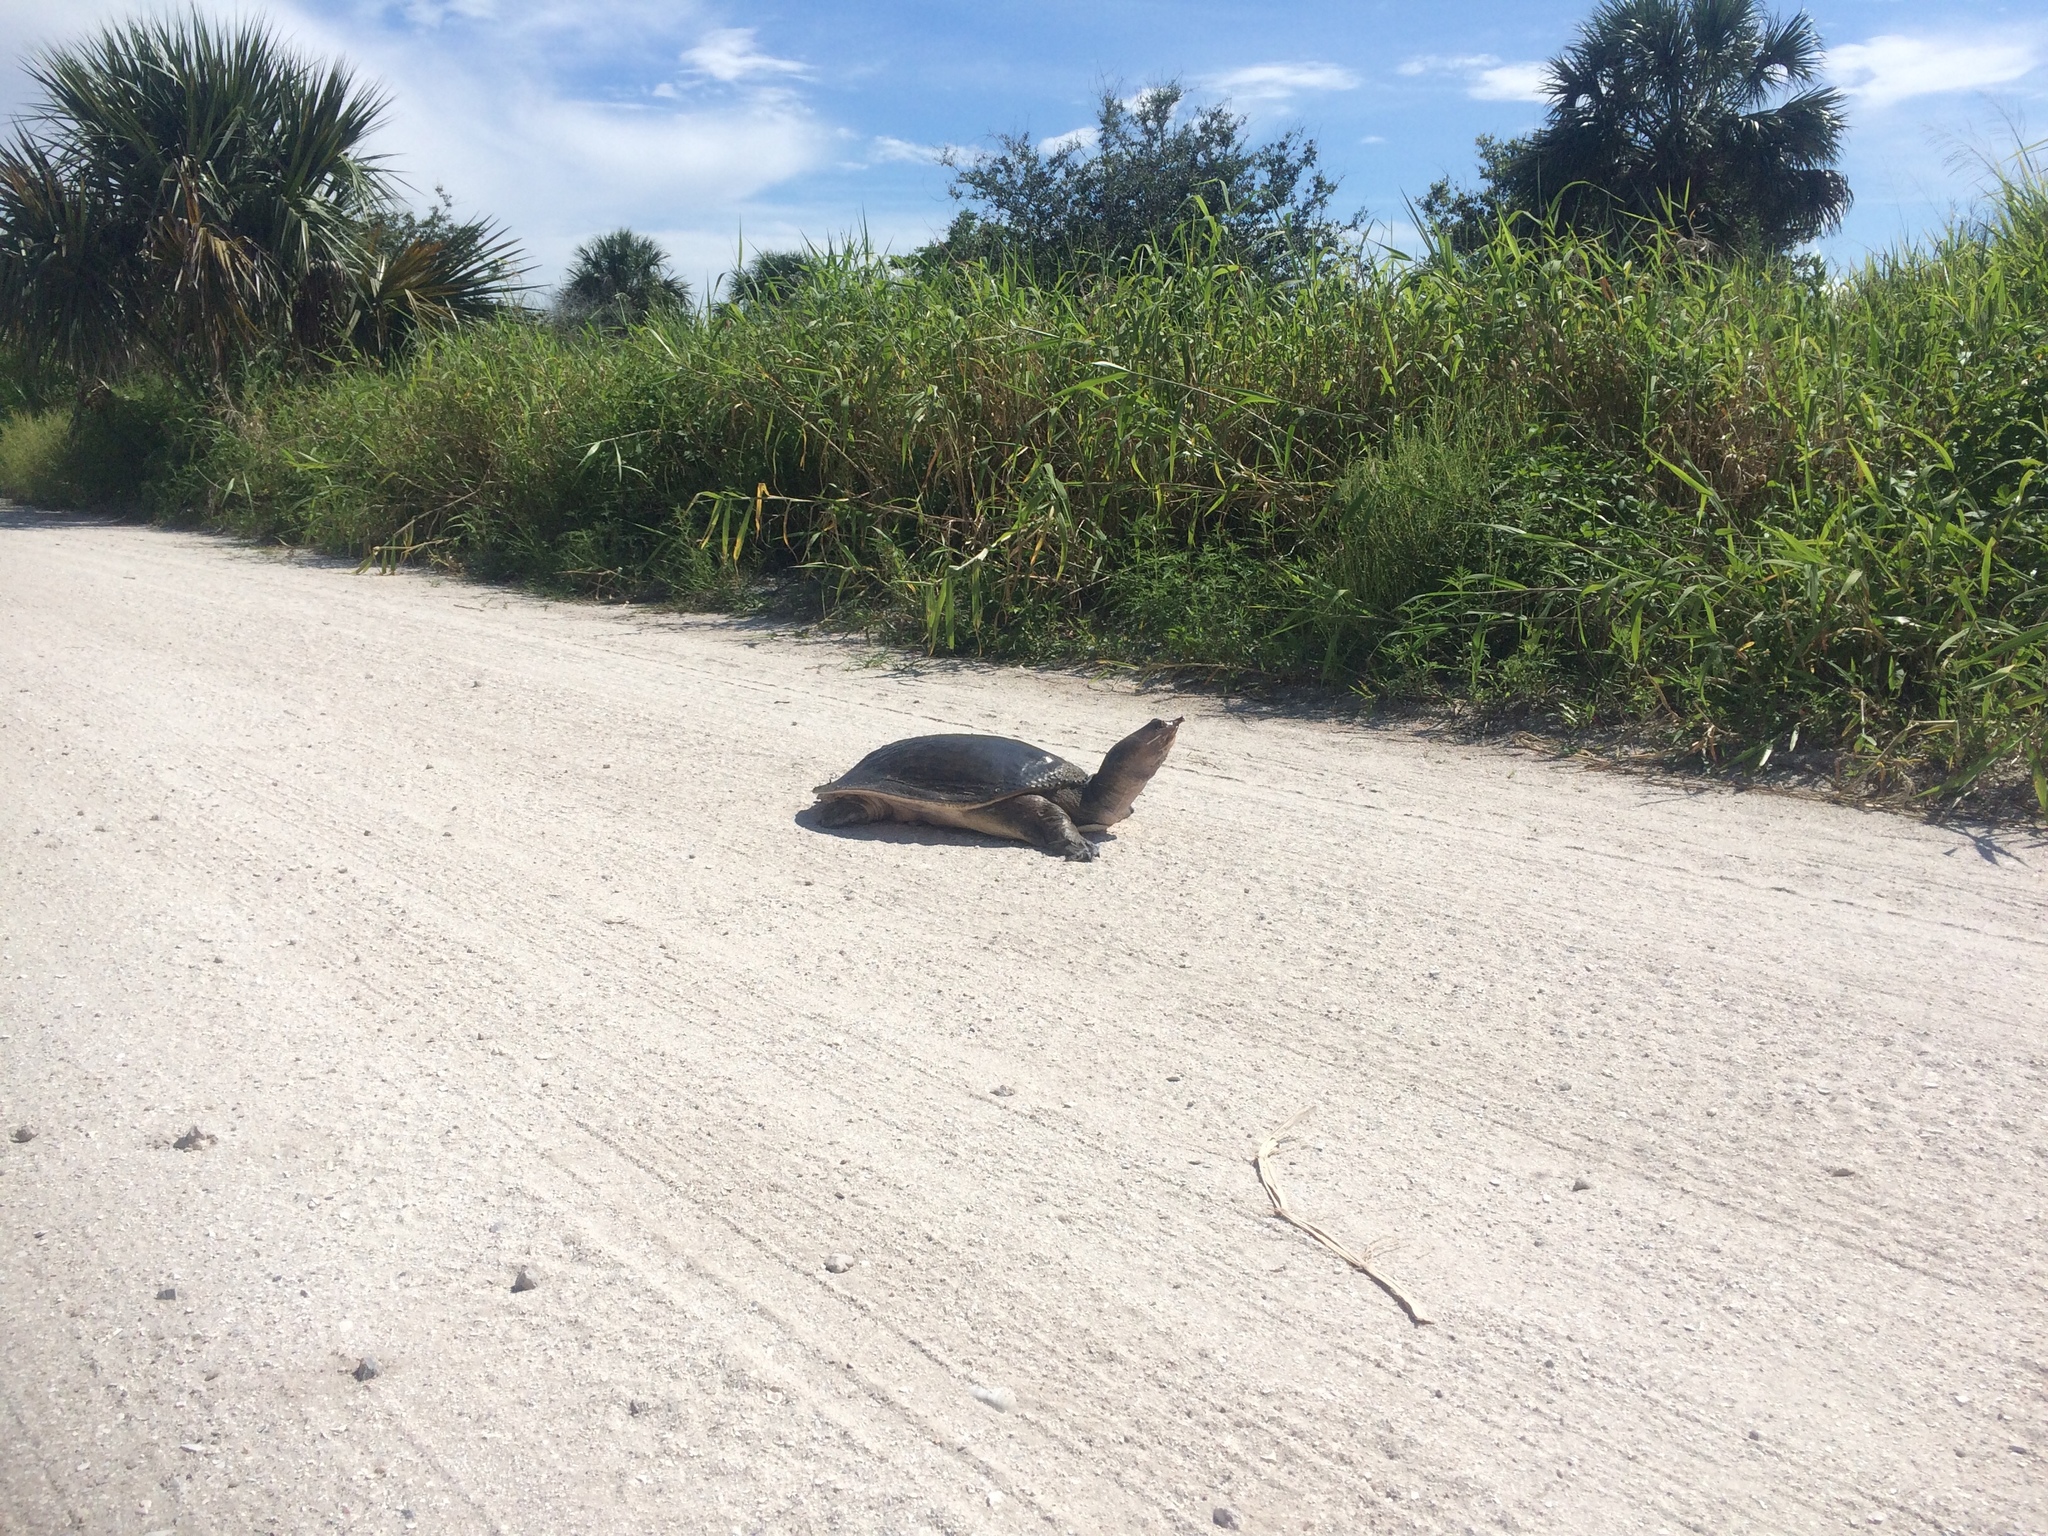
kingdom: Animalia
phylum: Chordata
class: Testudines
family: Trionychidae
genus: Apalone
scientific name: Apalone ferox
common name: Florida softshell turtle
